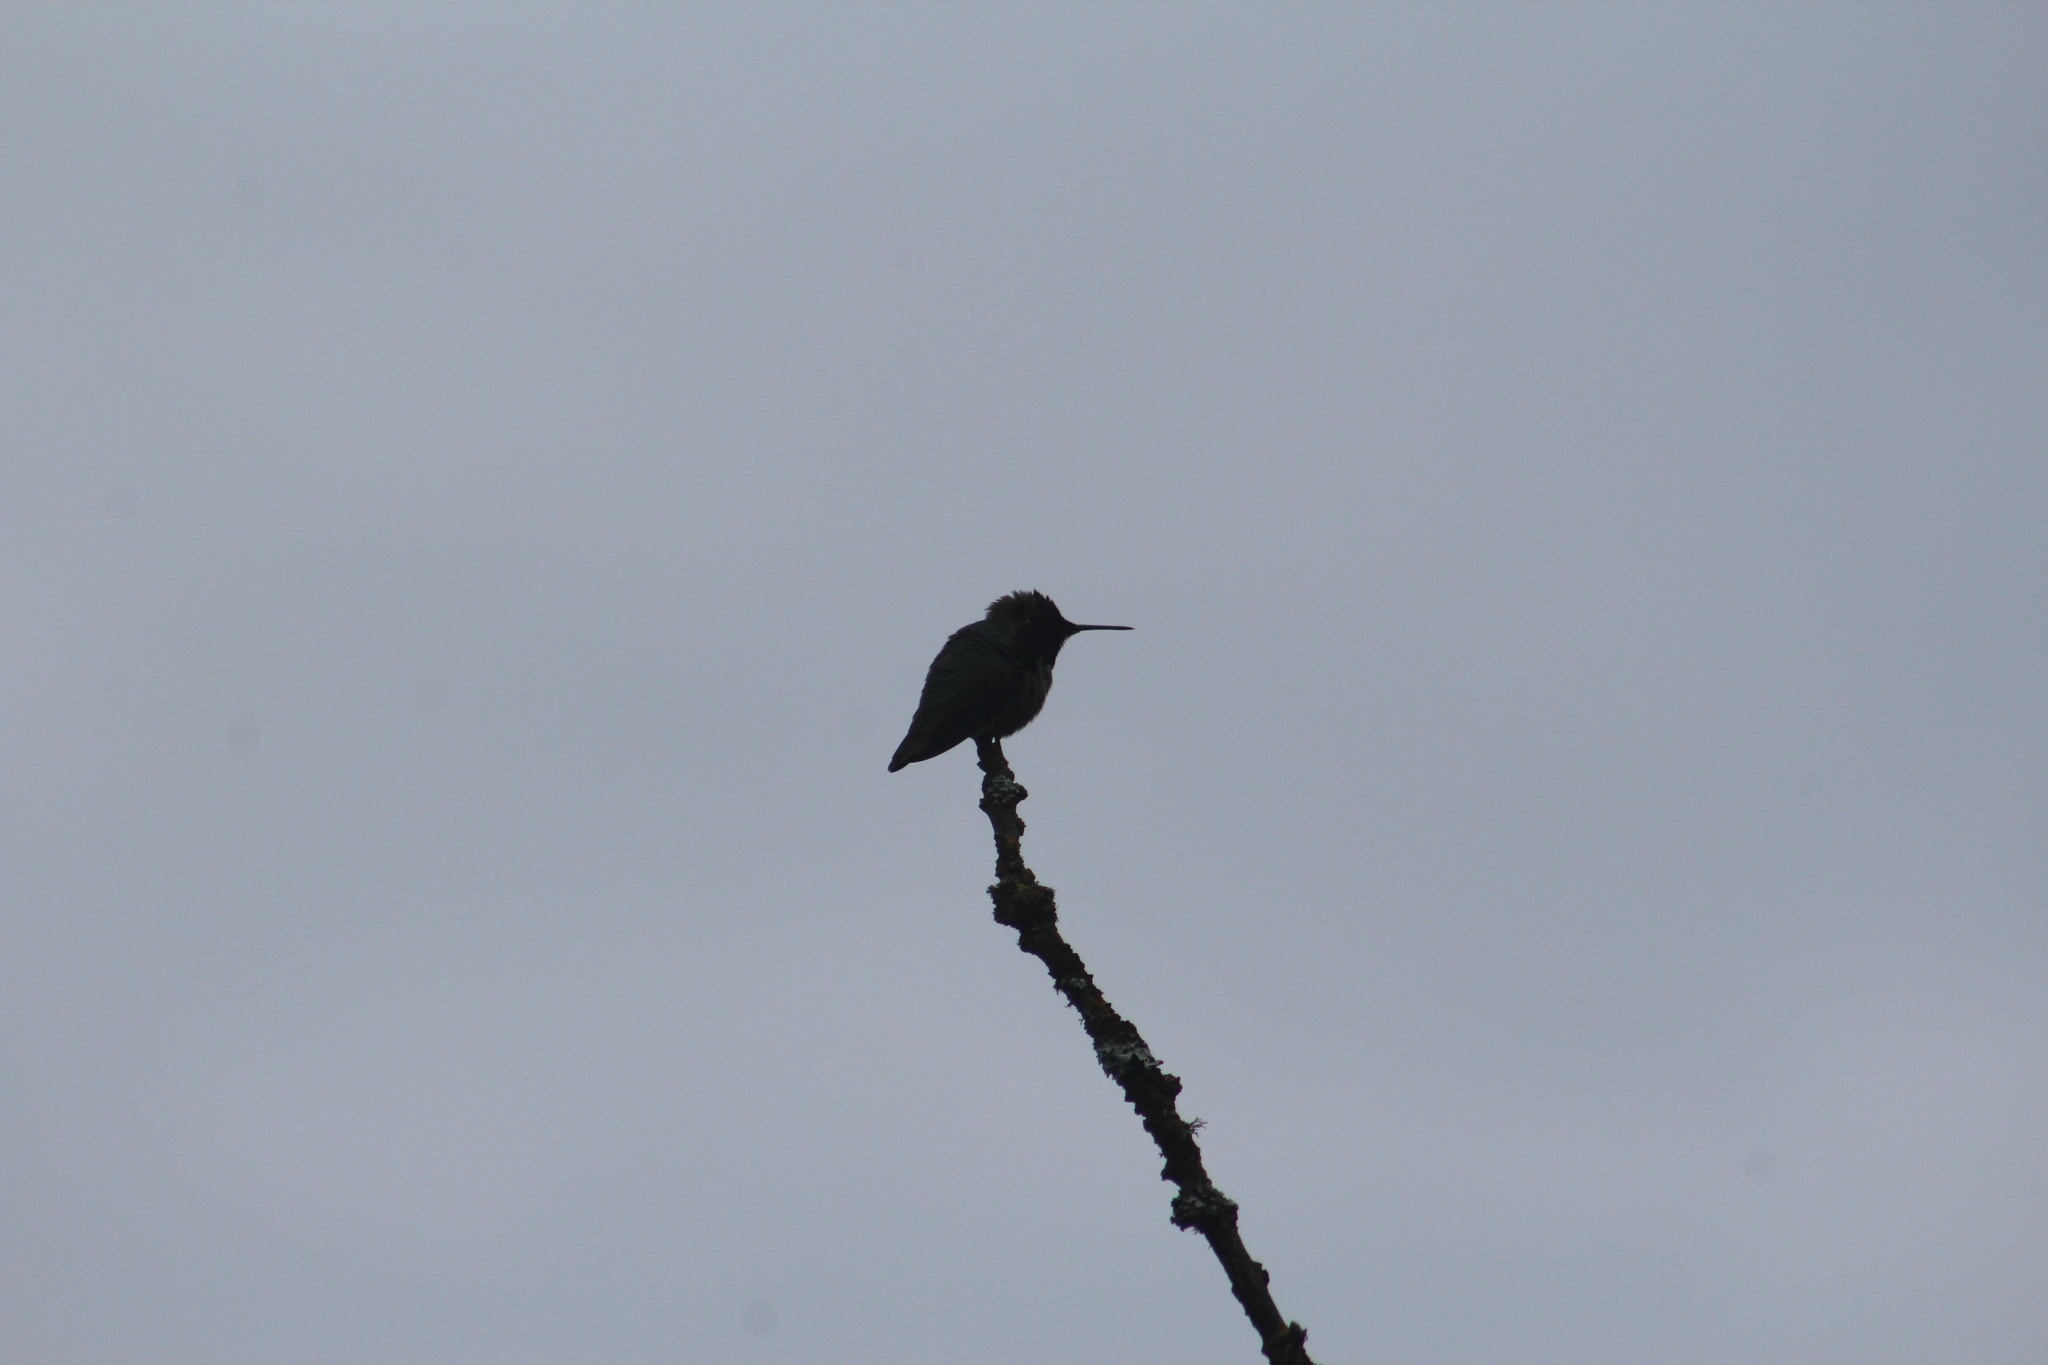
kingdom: Animalia
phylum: Chordata
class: Aves
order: Apodiformes
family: Trochilidae
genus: Calypte
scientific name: Calypte anna
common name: Anna's hummingbird
